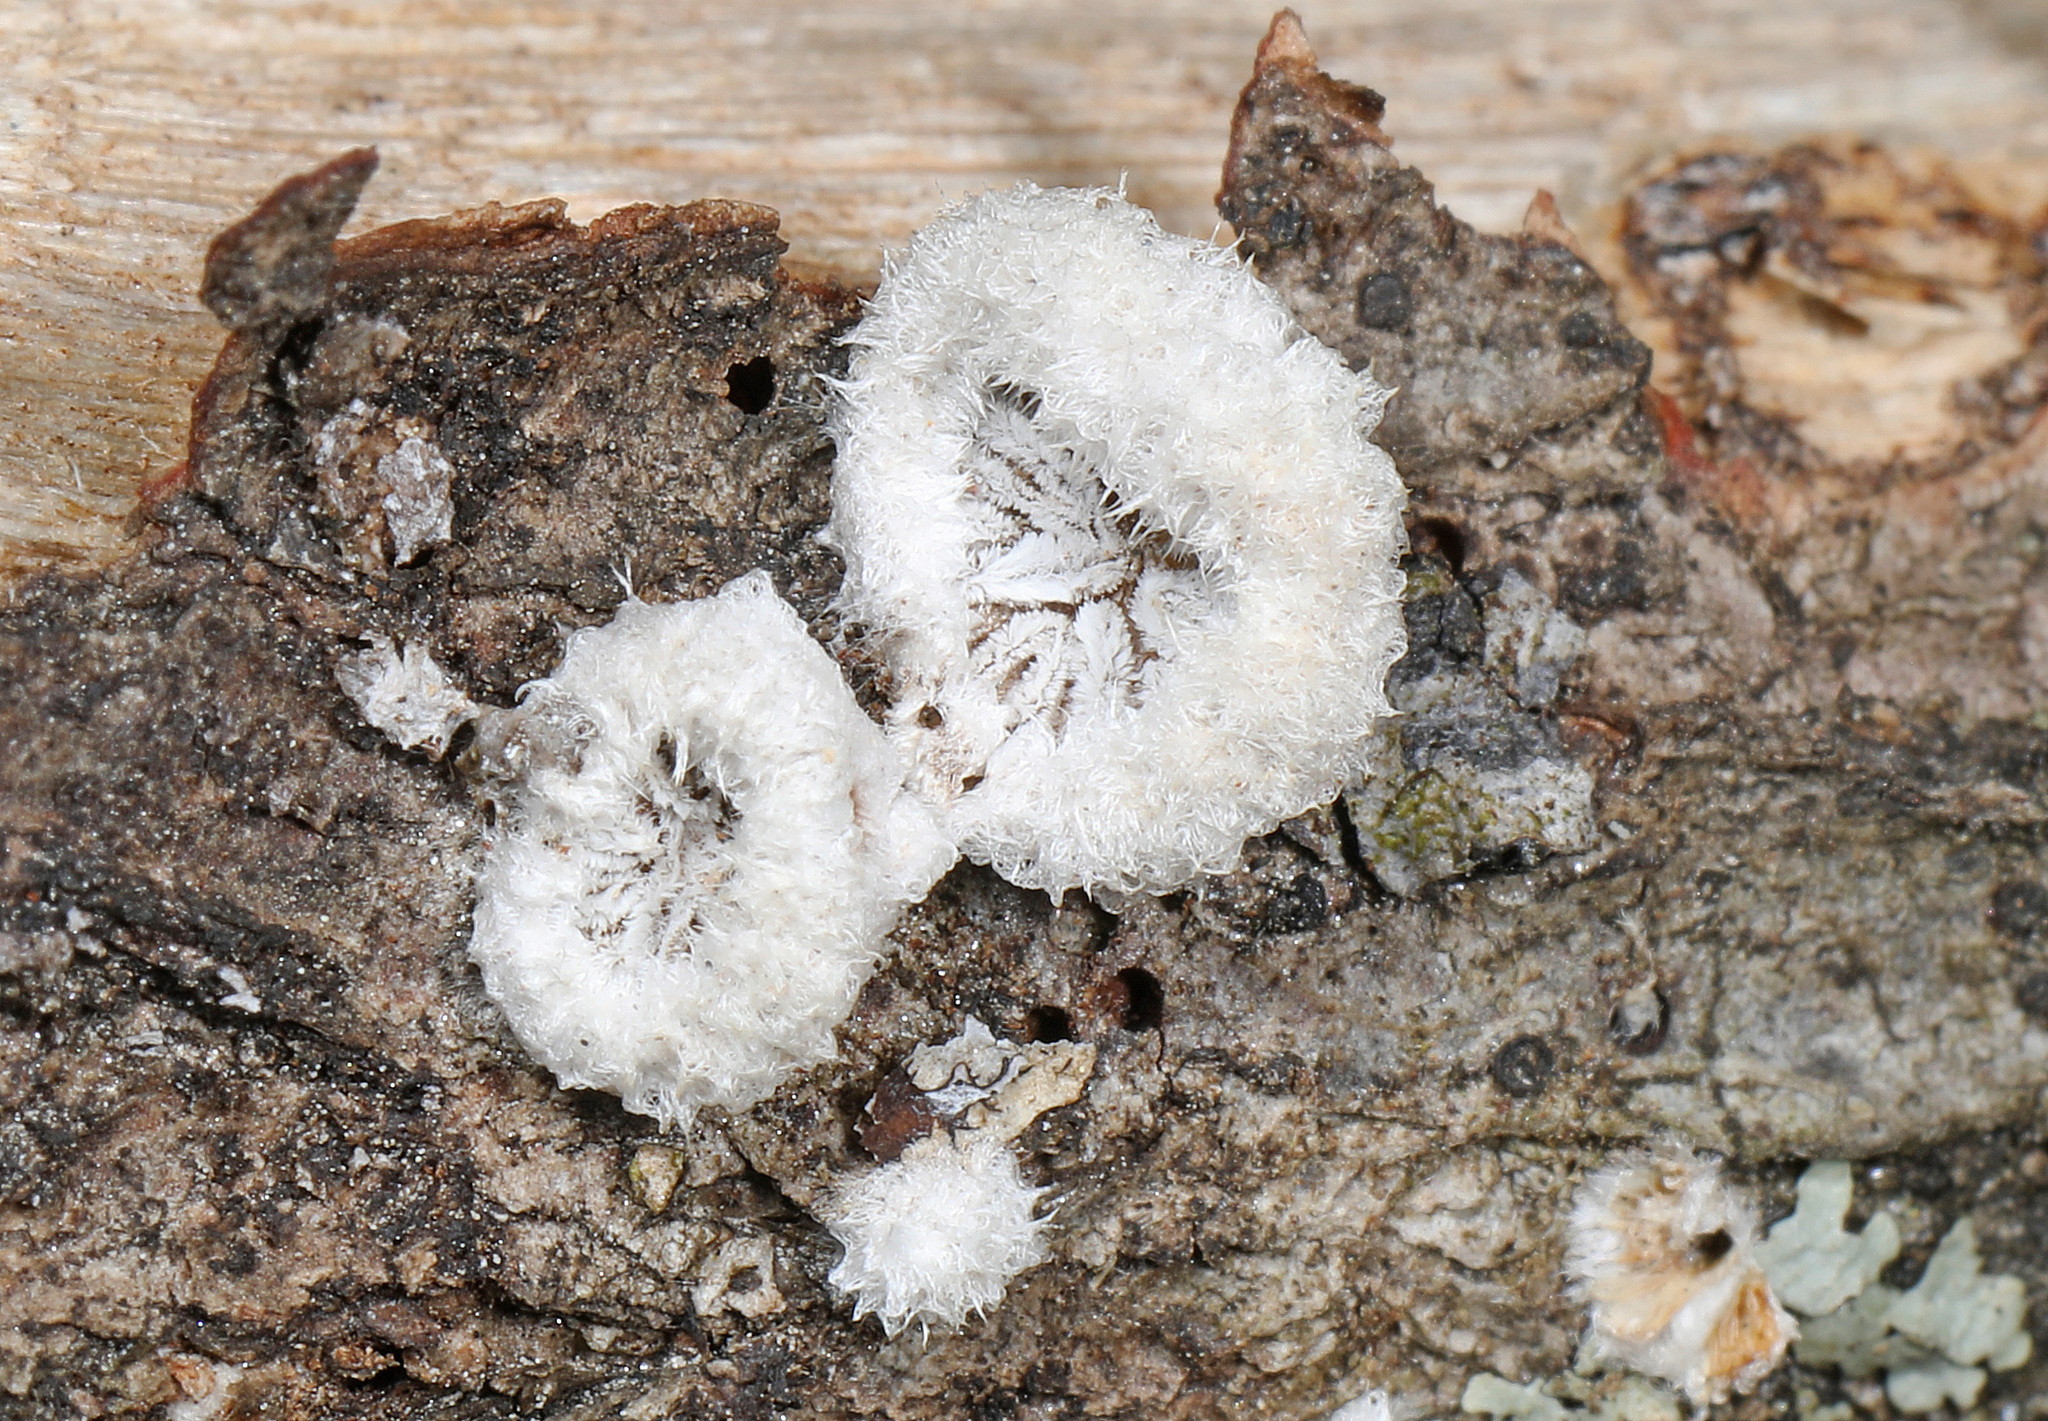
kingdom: Fungi
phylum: Basidiomycota
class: Agaricomycetes
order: Agaricales
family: Schizophyllaceae
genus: Schizophyllum
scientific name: Schizophyllum commune
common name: Common porecrust
